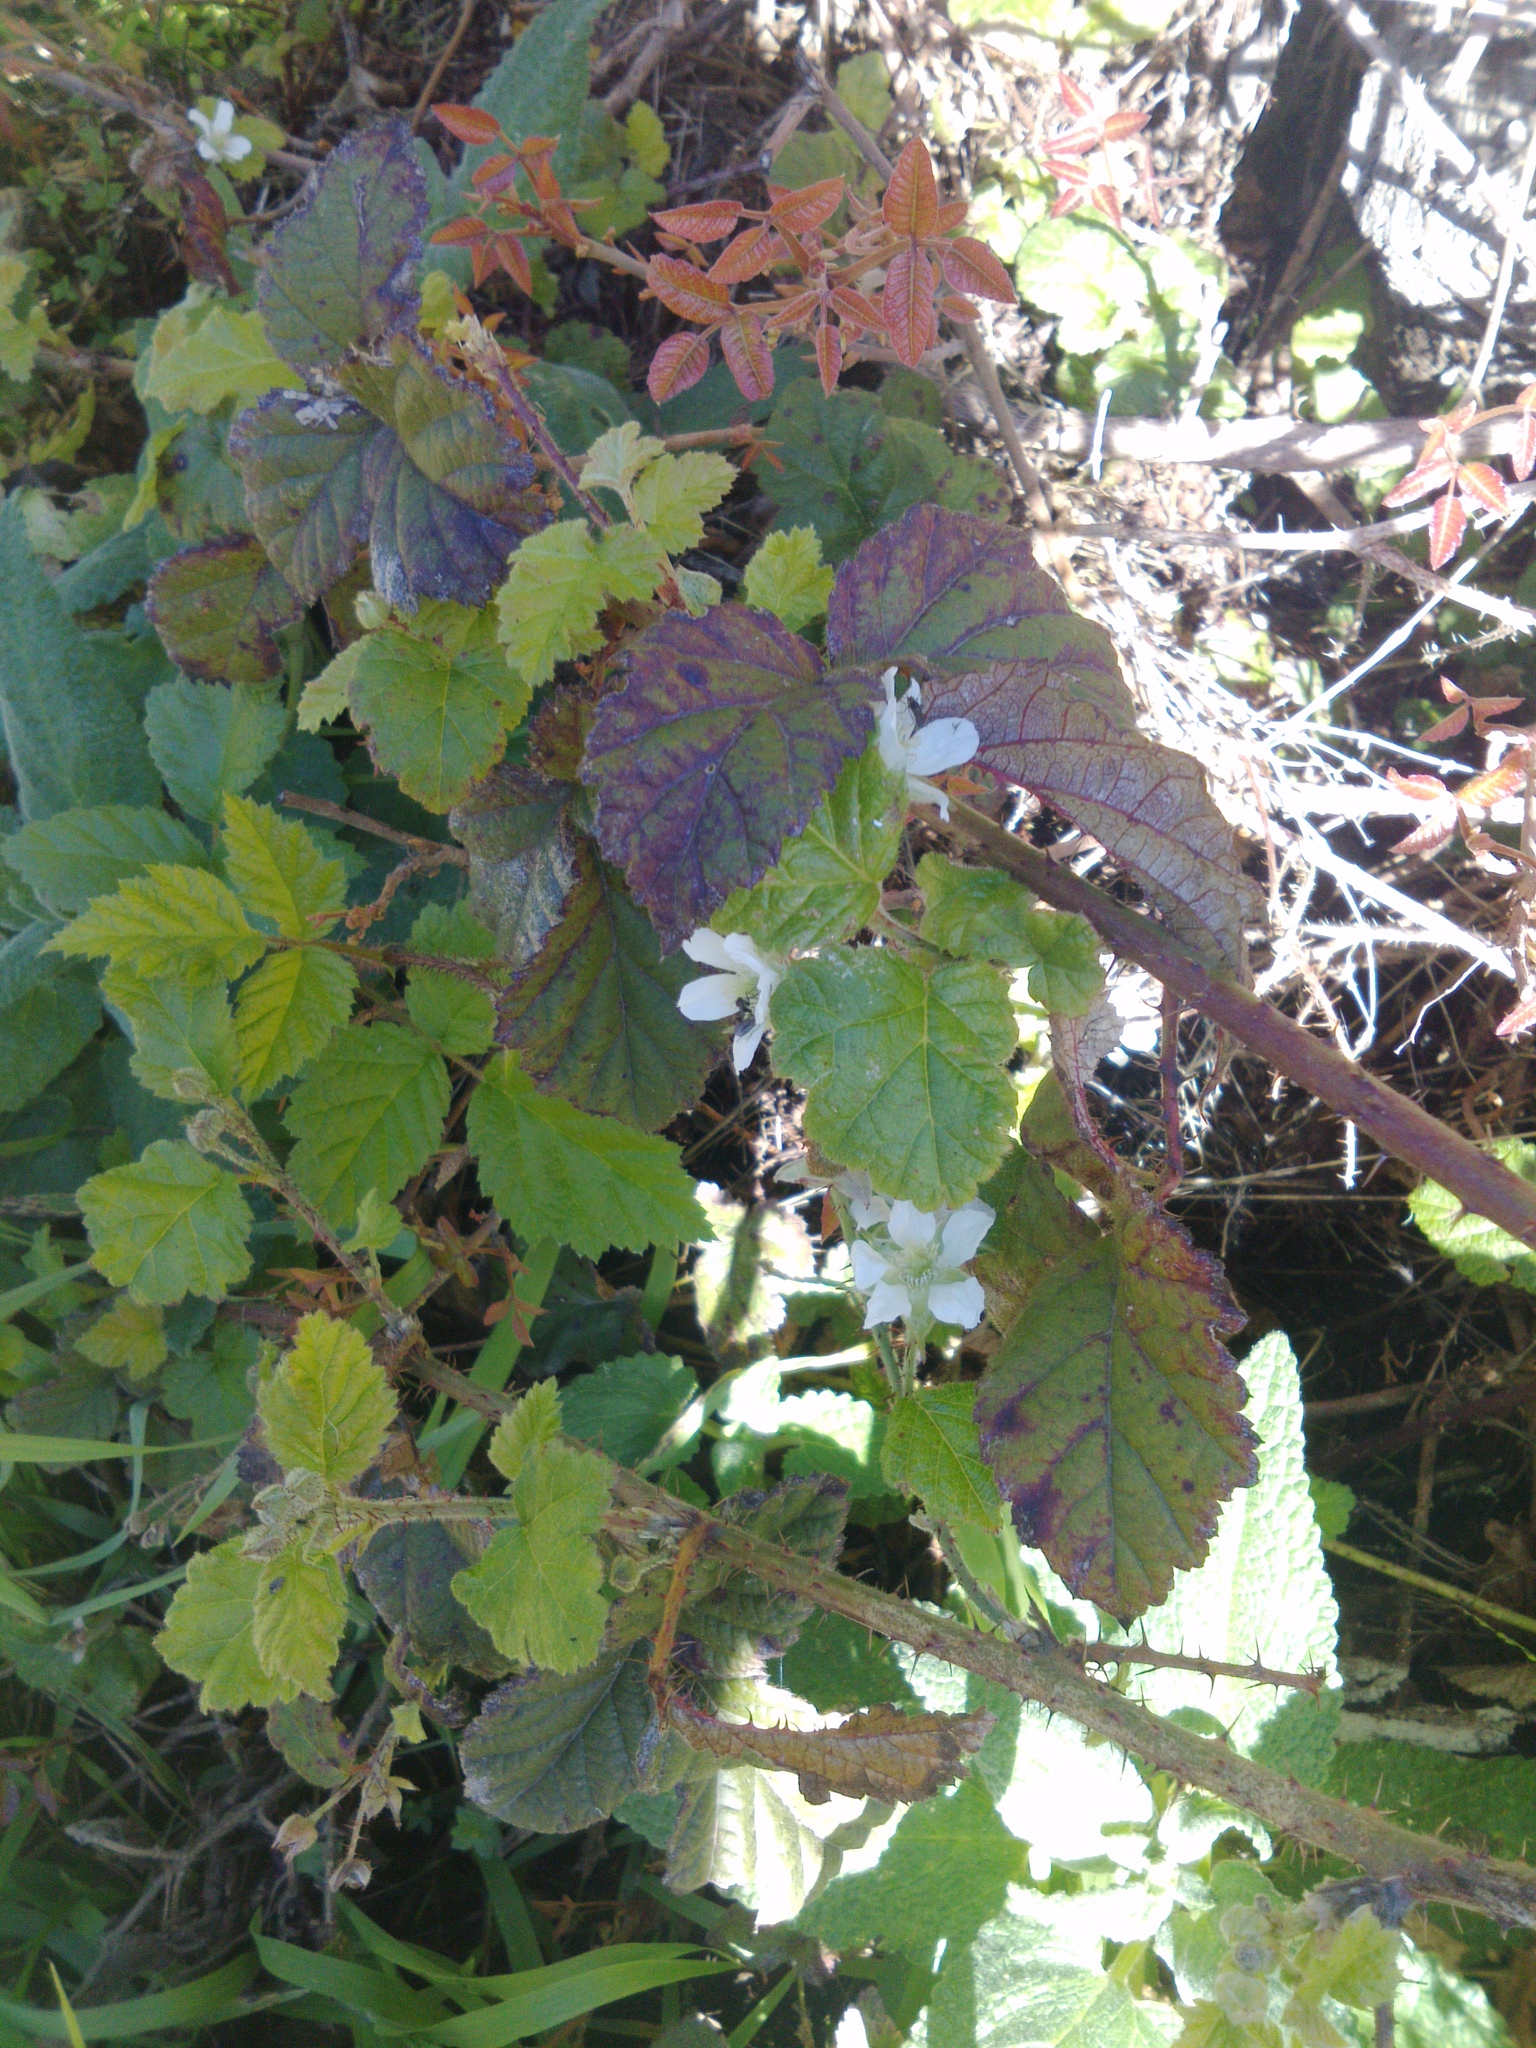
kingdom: Plantae
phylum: Tracheophyta
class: Magnoliopsida
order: Rosales
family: Rosaceae
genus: Rubus
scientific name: Rubus ursinus
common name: Pacific blackberry
